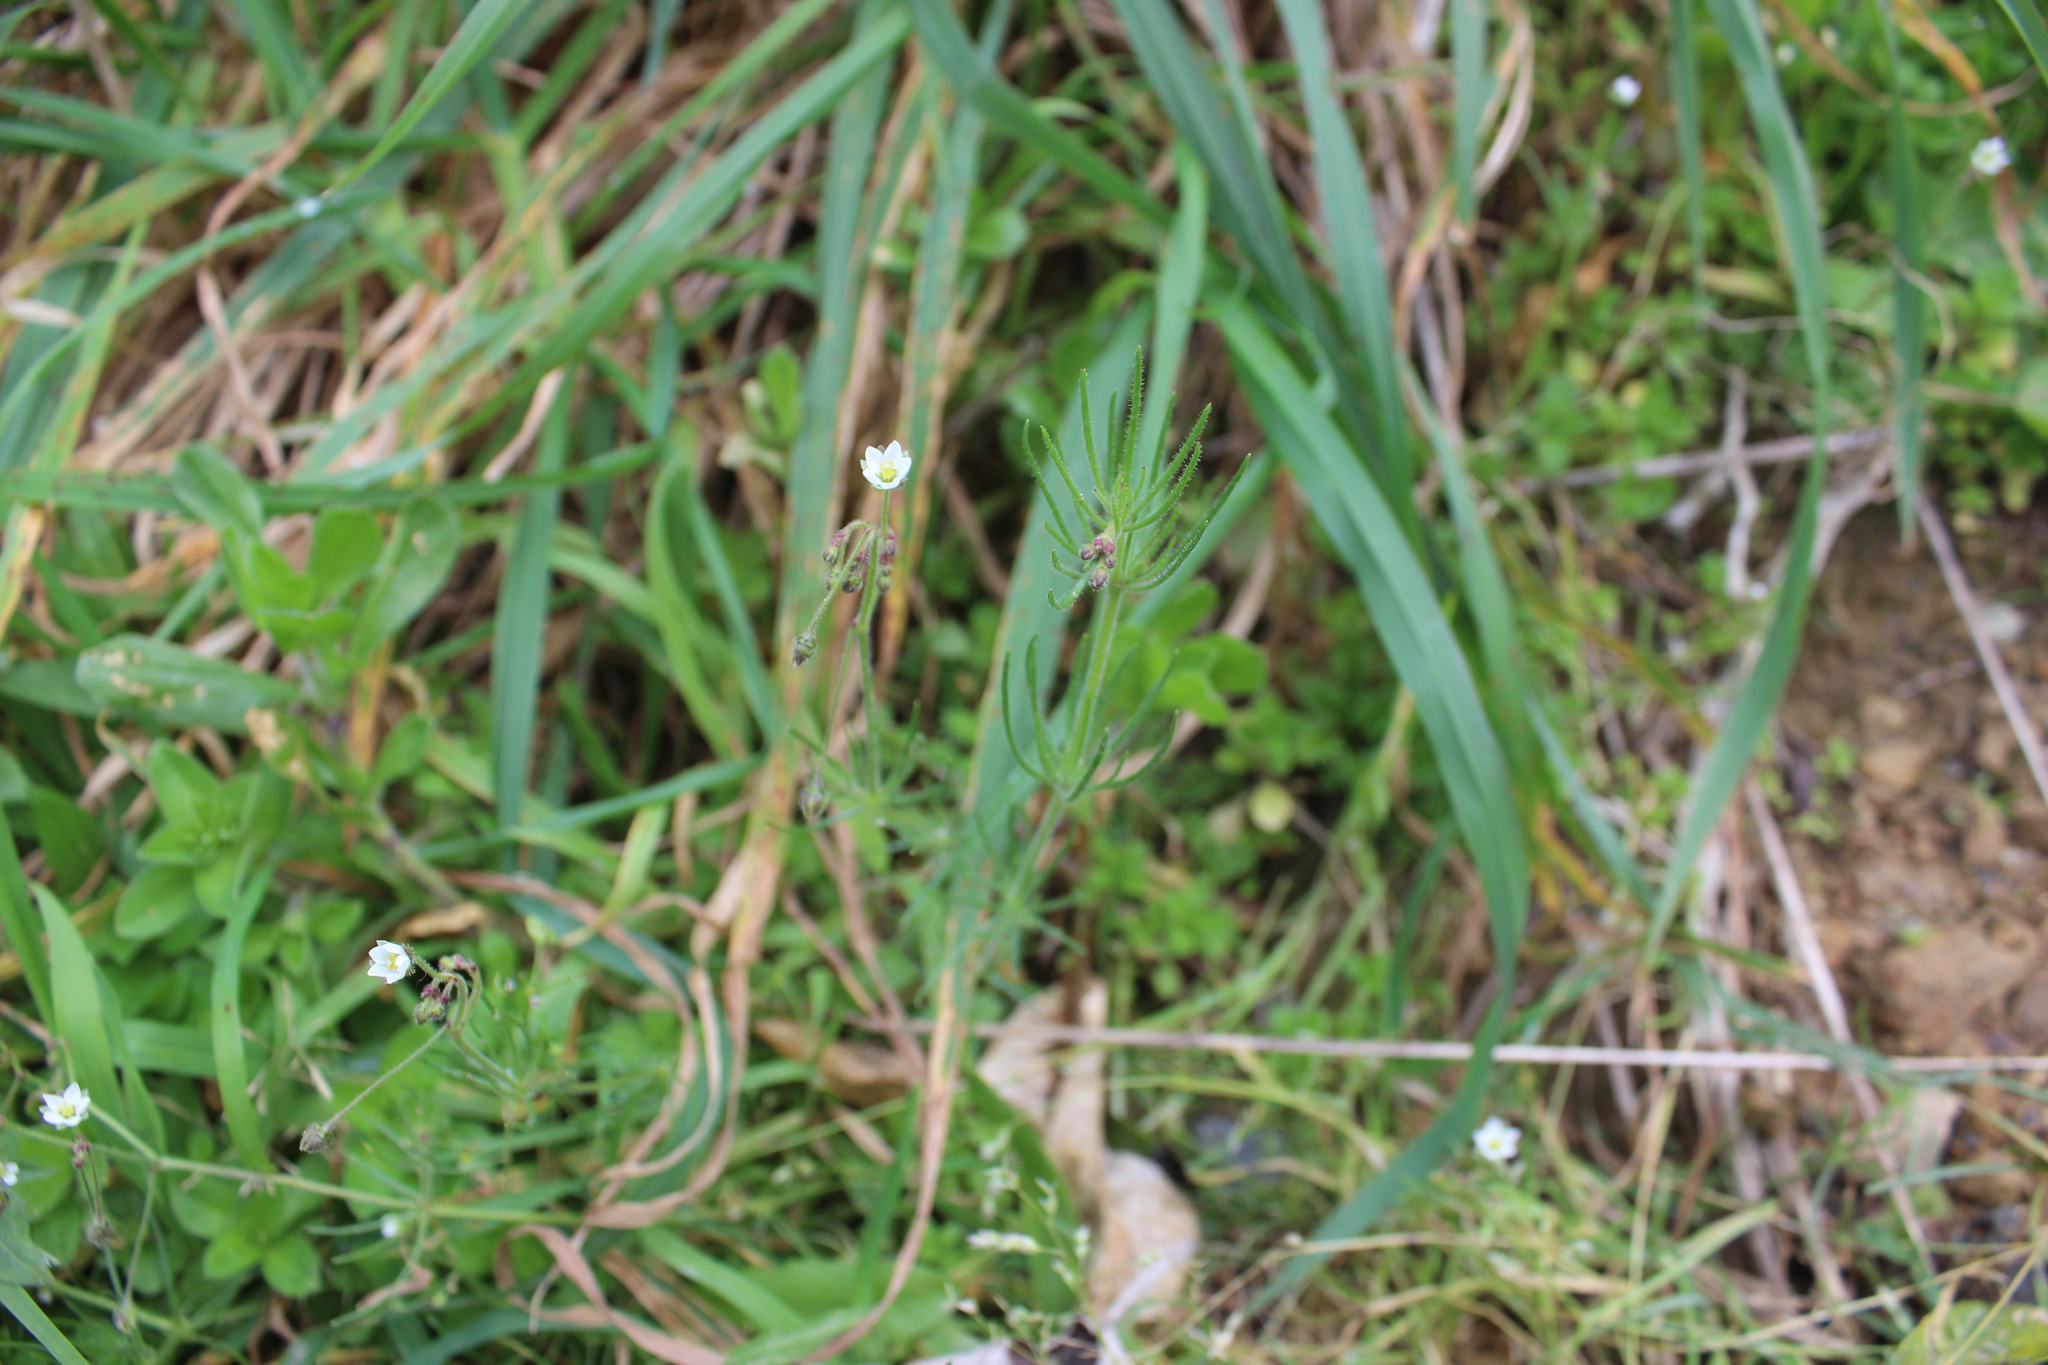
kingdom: Plantae
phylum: Tracheophyta
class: Magnoliopsida
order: Caryophyllales
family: Caryophyllaceae
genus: Spergula
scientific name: Spergula arvensis
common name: Corn spurrey
